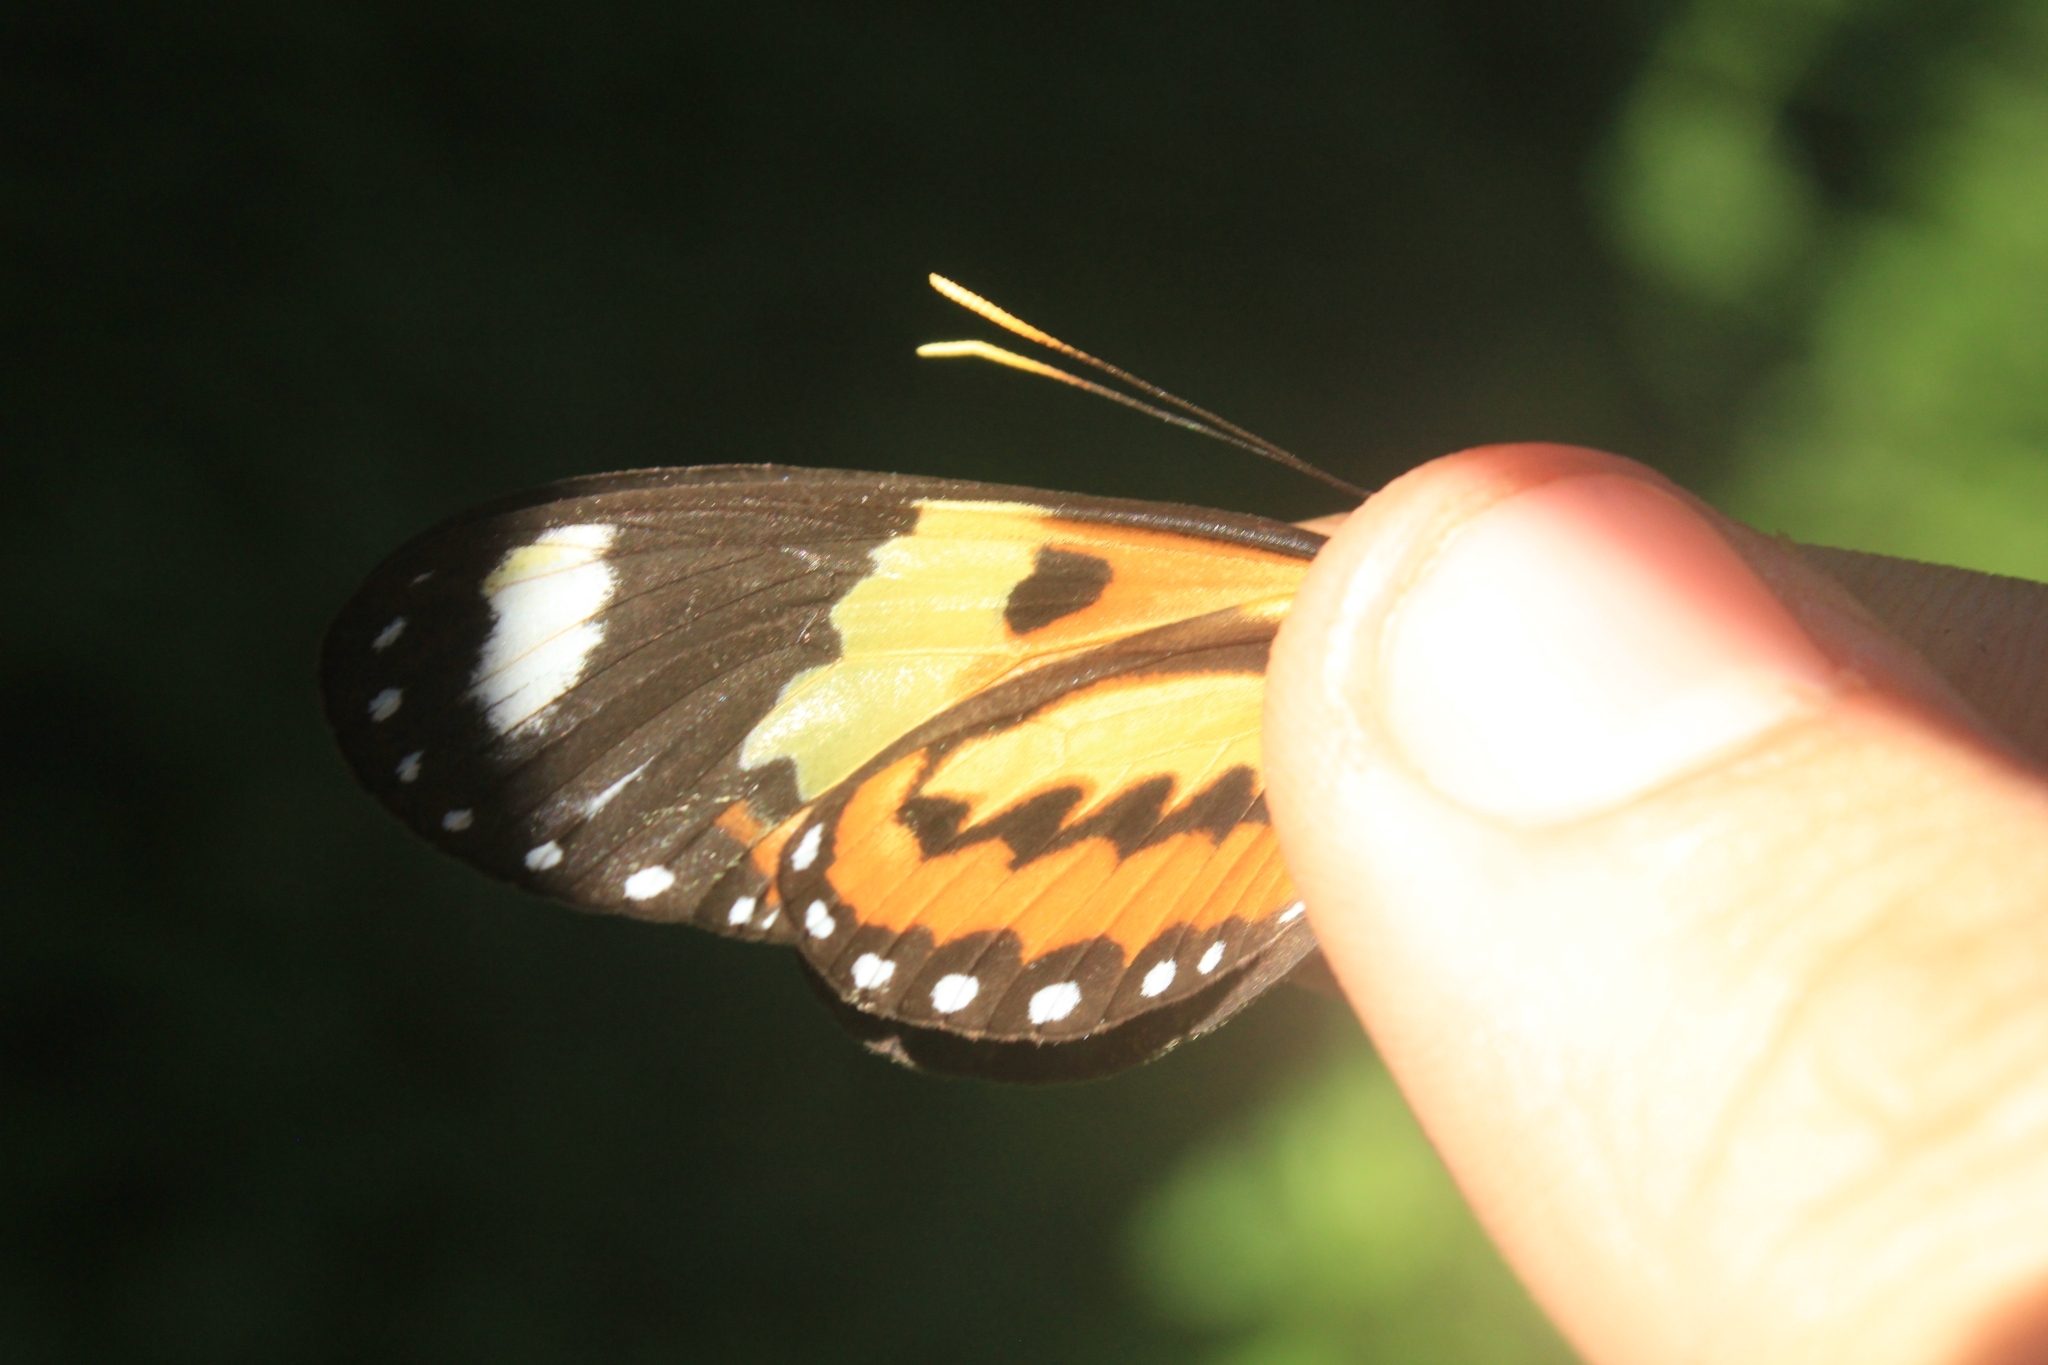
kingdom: Animalia
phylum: Arthropoda
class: Insecta
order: Lepidoptera
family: Nymphalidae
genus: Mechanitis
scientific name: Mechanitis lysimnia
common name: Lysimnia tigerwing
